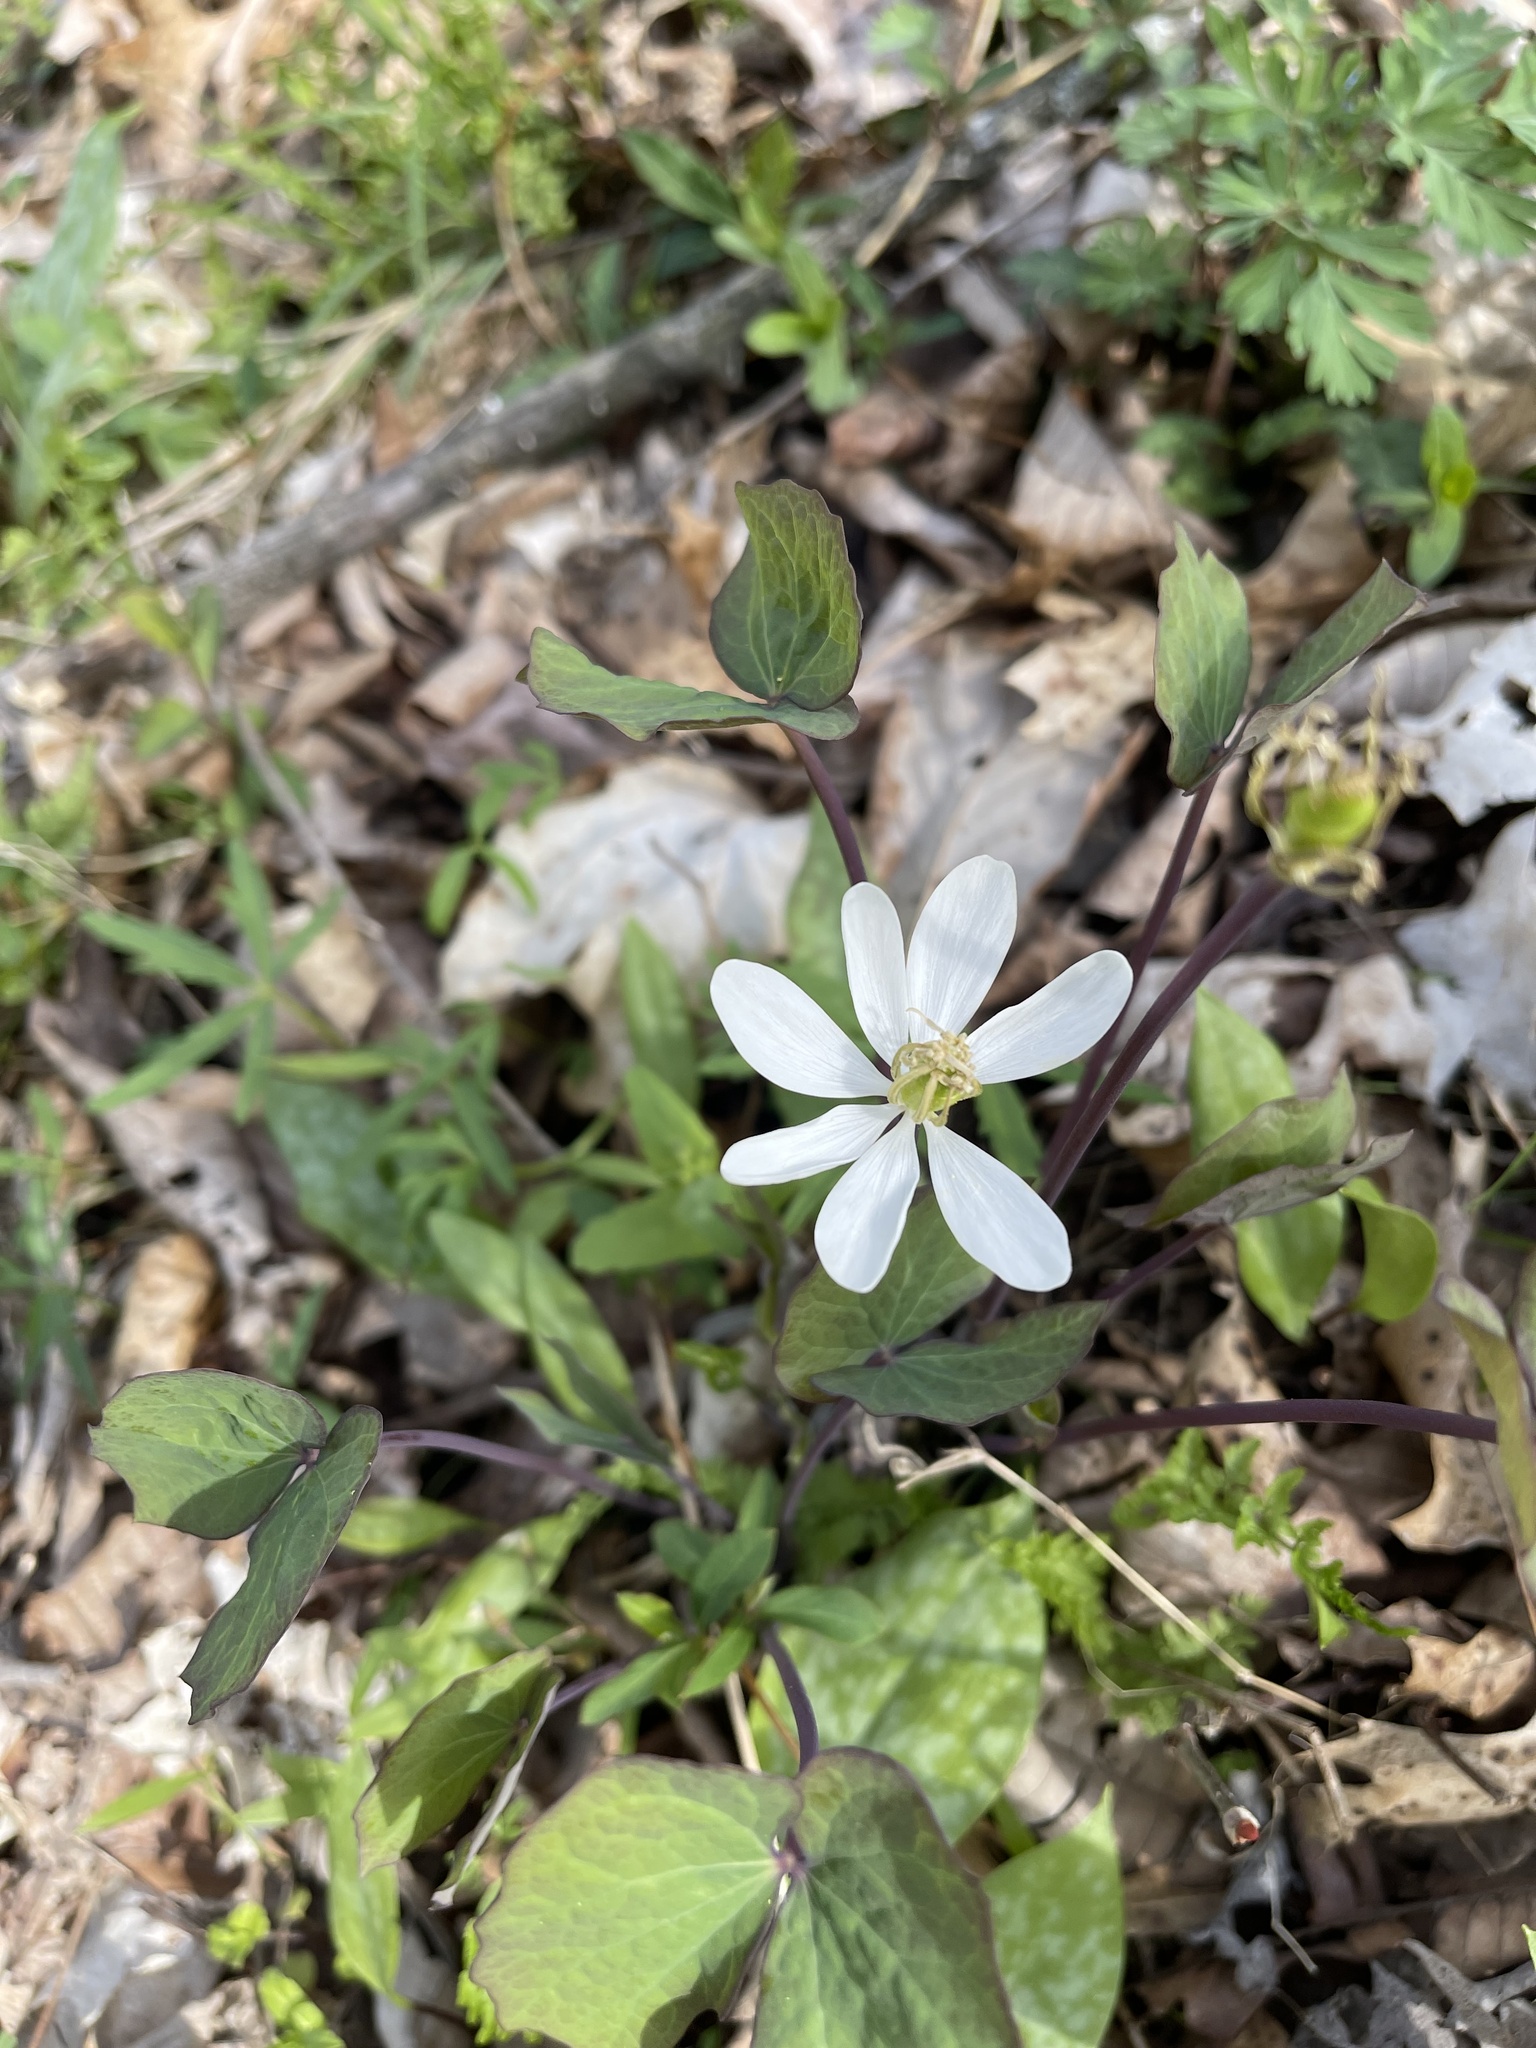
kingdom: Plantae
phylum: Tracheophyta
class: Magnoliopsida
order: Ranunculales
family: Berberidaceae
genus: Jeffersonia
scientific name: Jeffersonia diphylla
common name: Rheumatism-root
